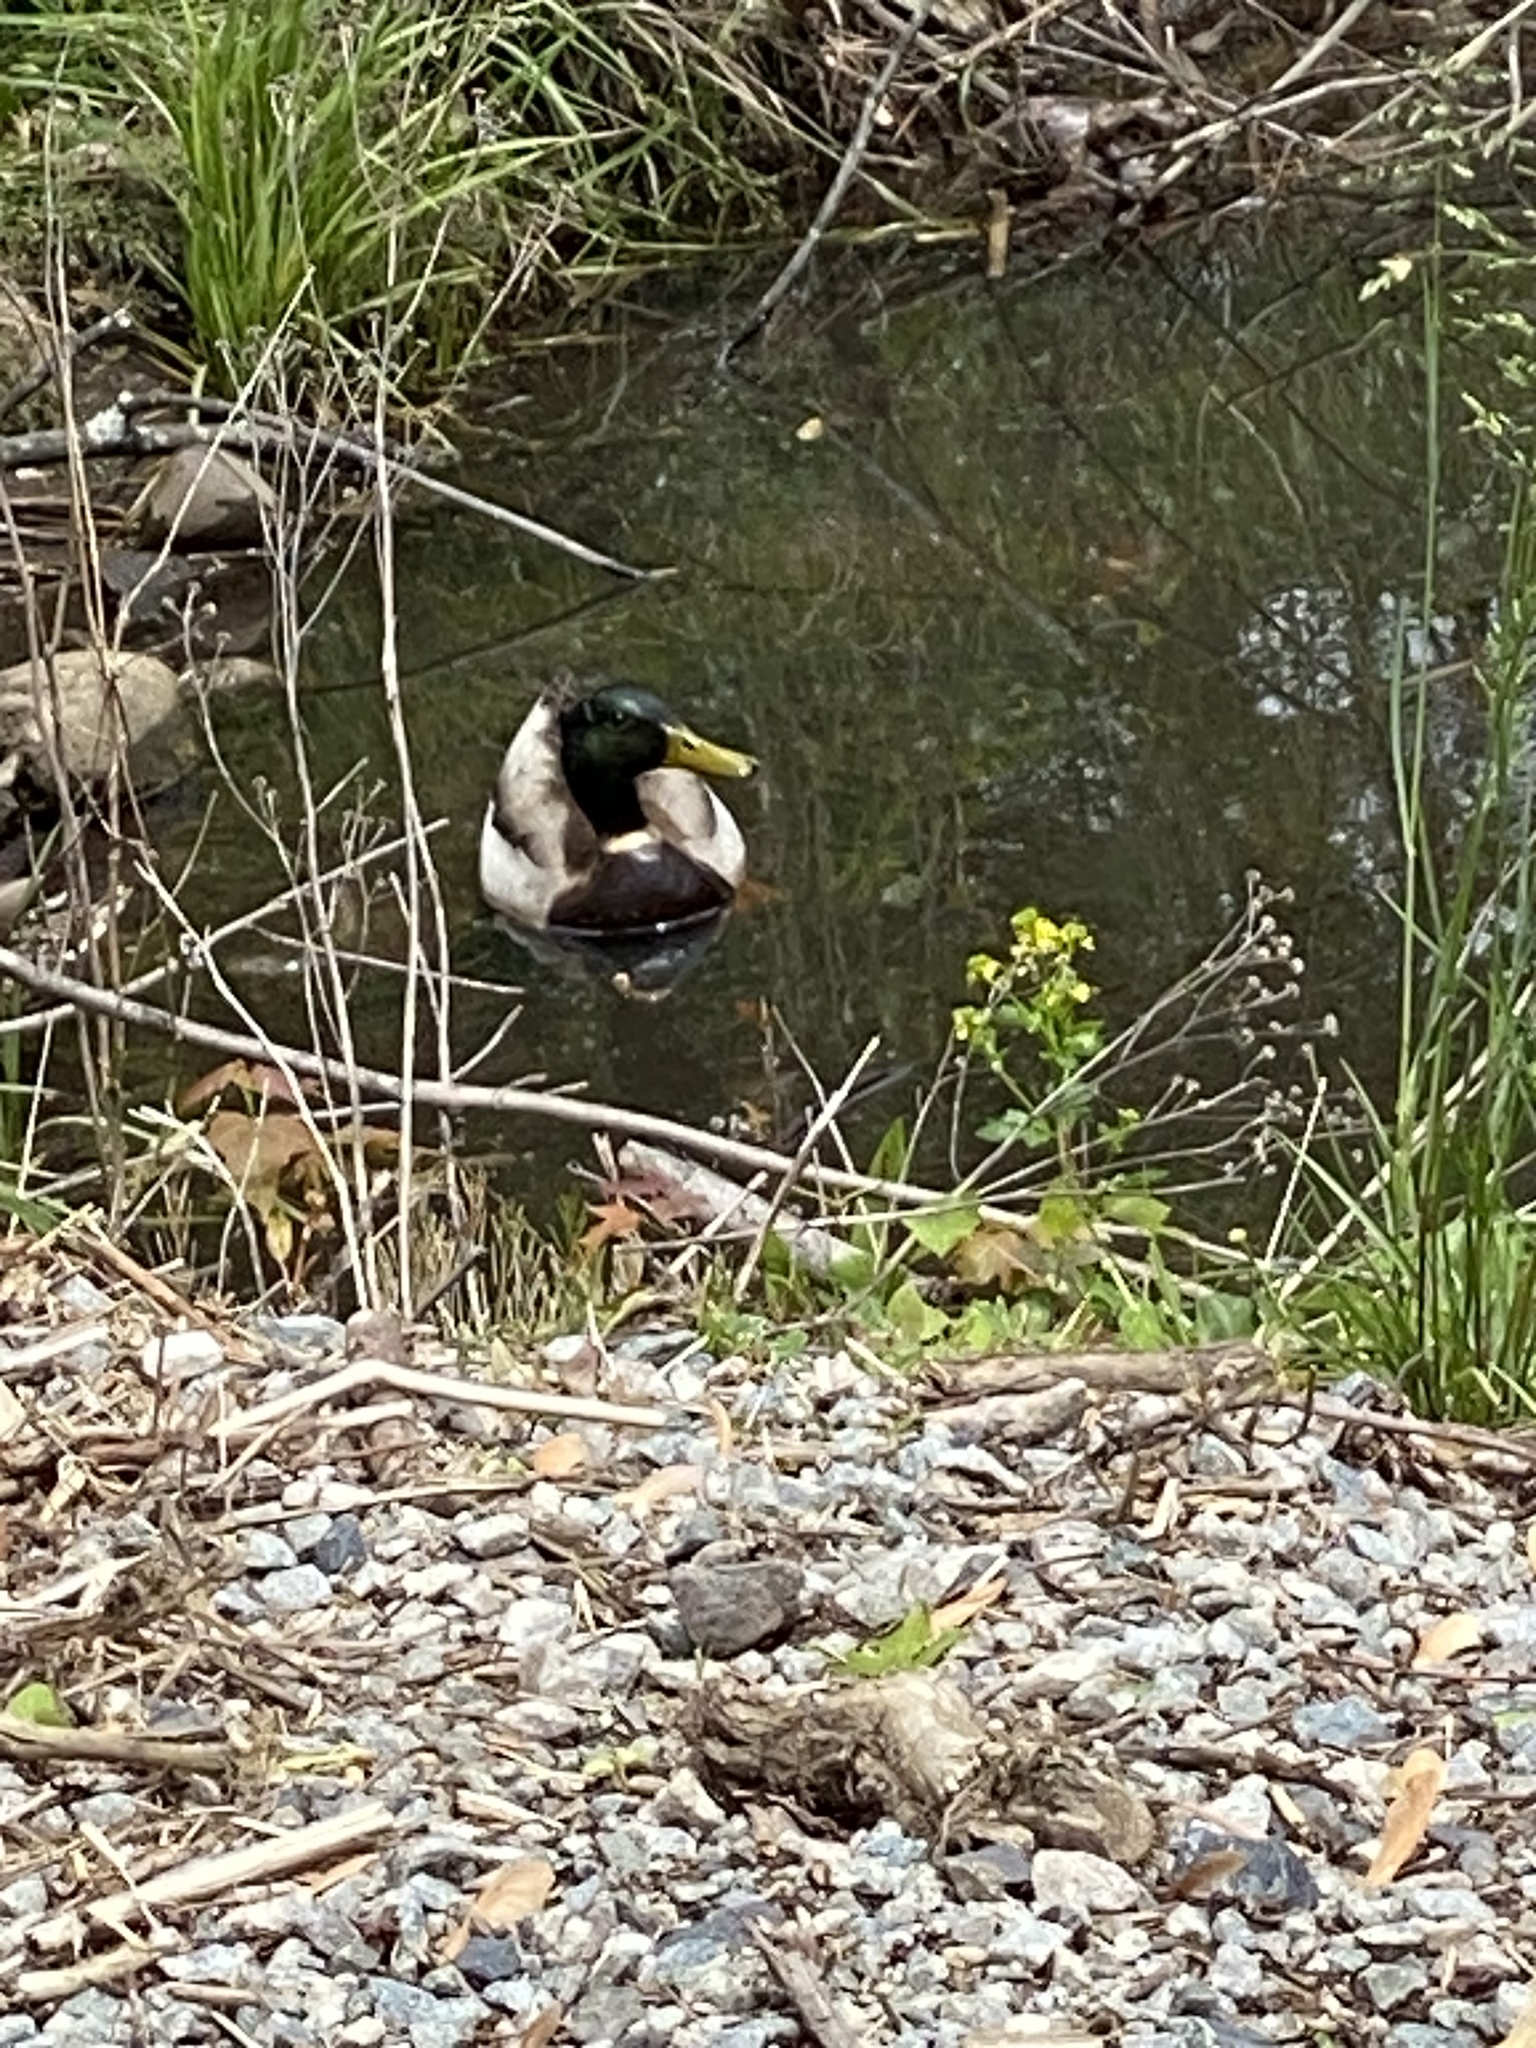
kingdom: Animalia
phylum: Chordata
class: Aves
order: Anseriformes
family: Anatidae
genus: Anas
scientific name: Anas platyrhynchos
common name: Mallard
